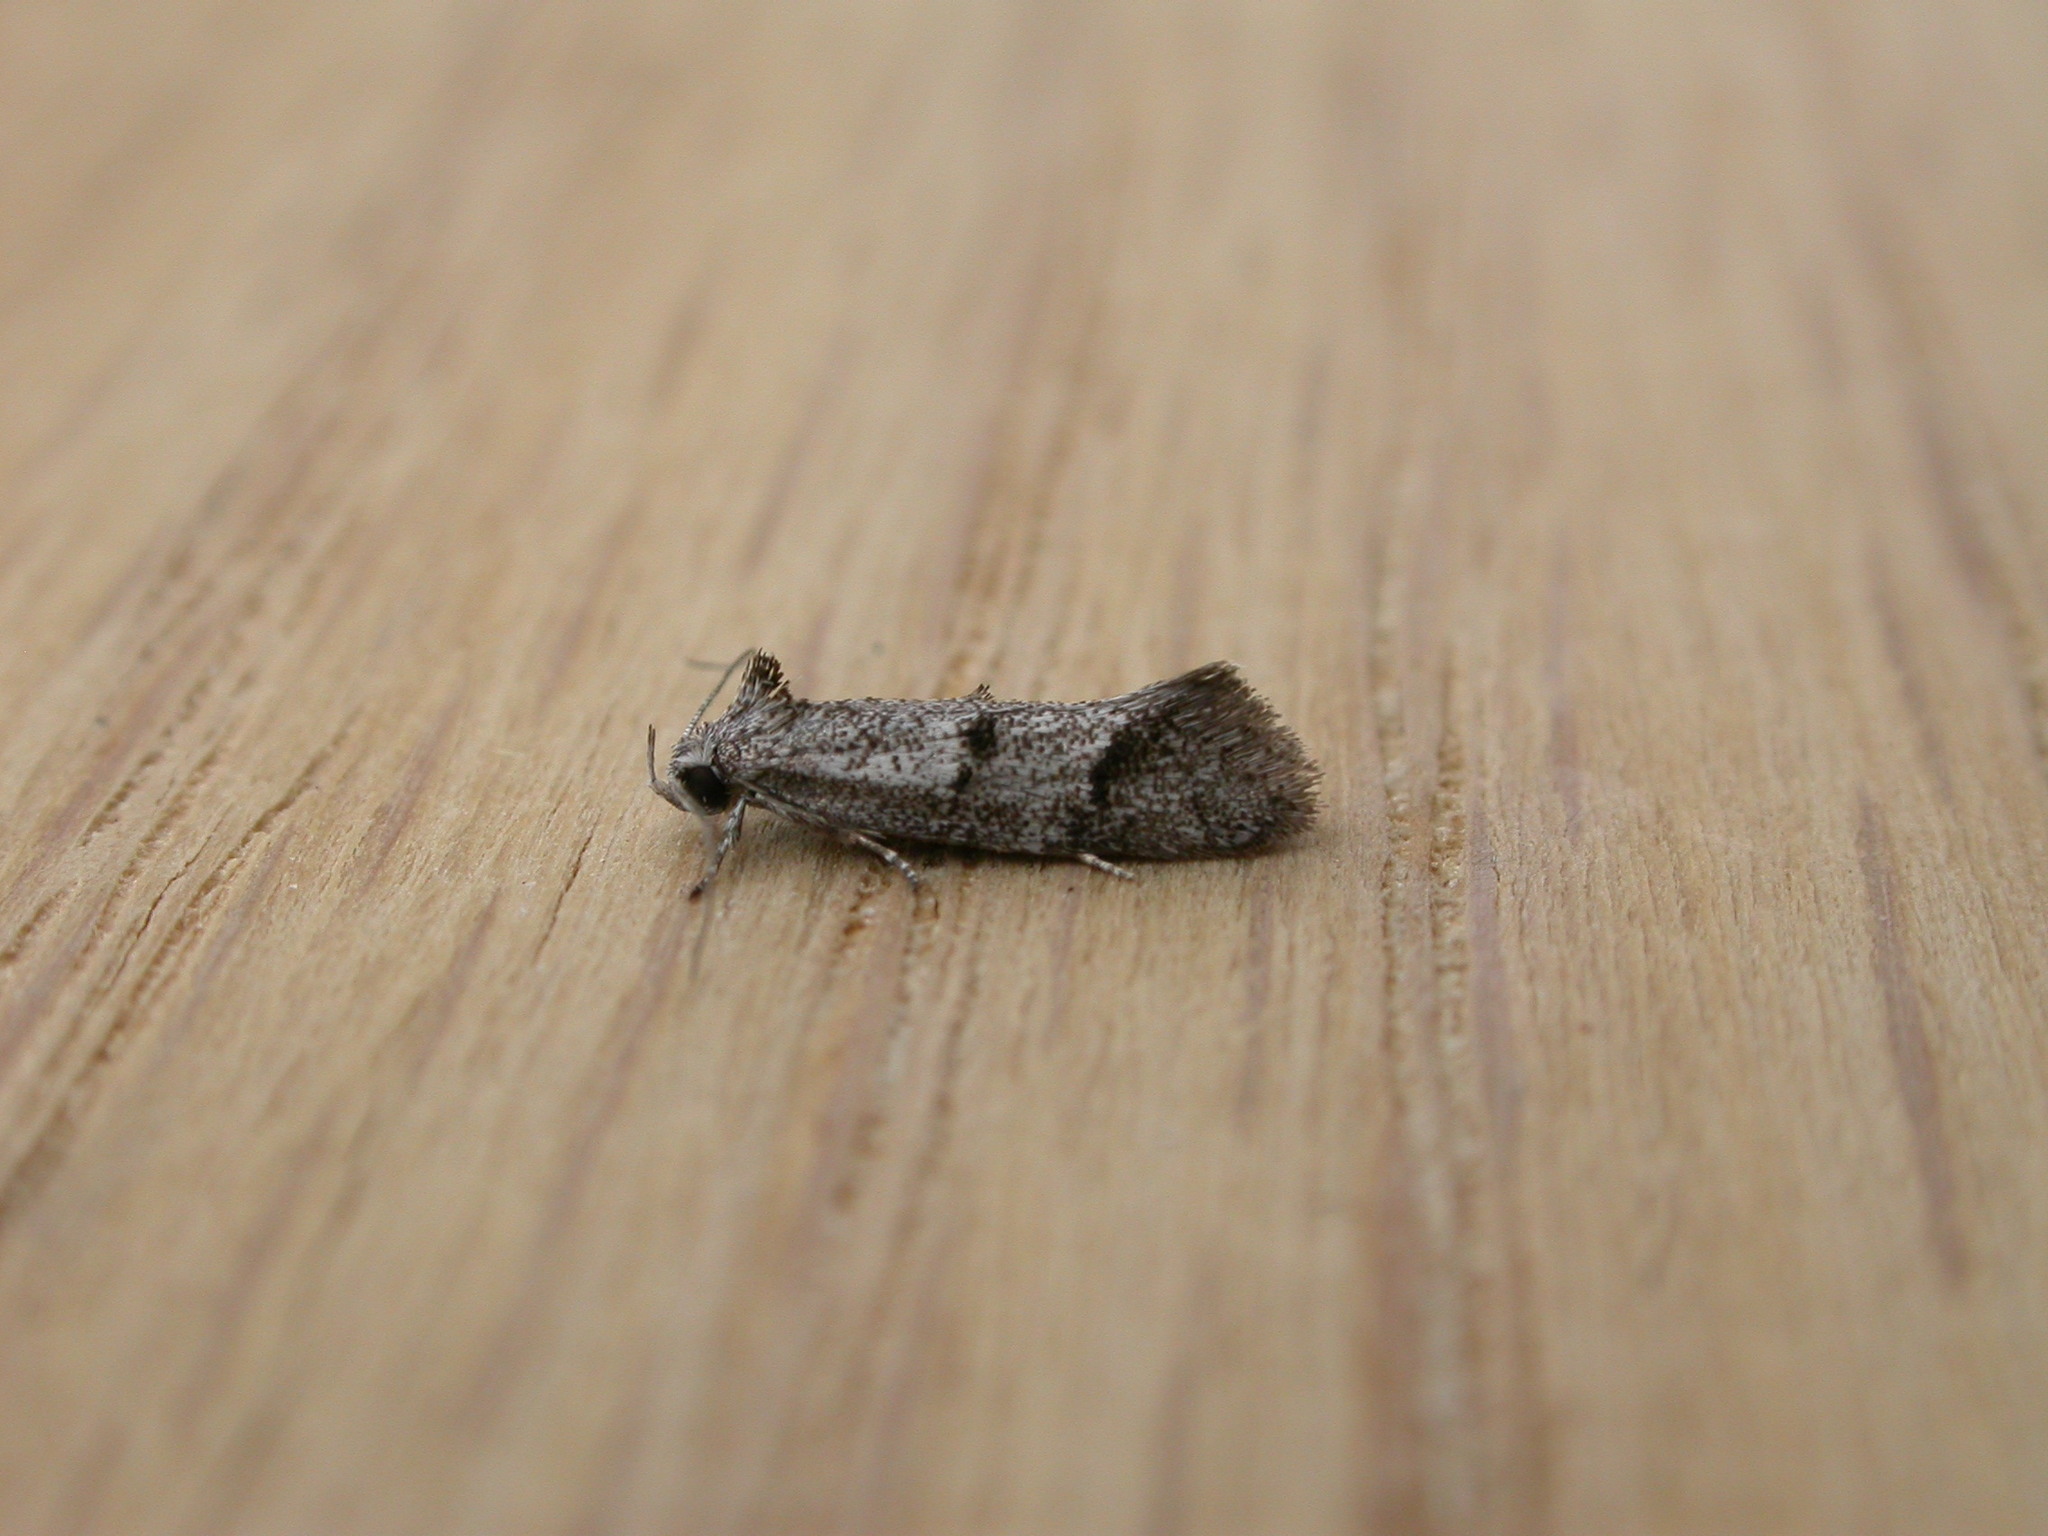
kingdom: Animalia
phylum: Arthropoda
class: Insecta
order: Lepidoptera
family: Oecophoridae
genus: Heterozyga
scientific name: Heterozyga coppatias
